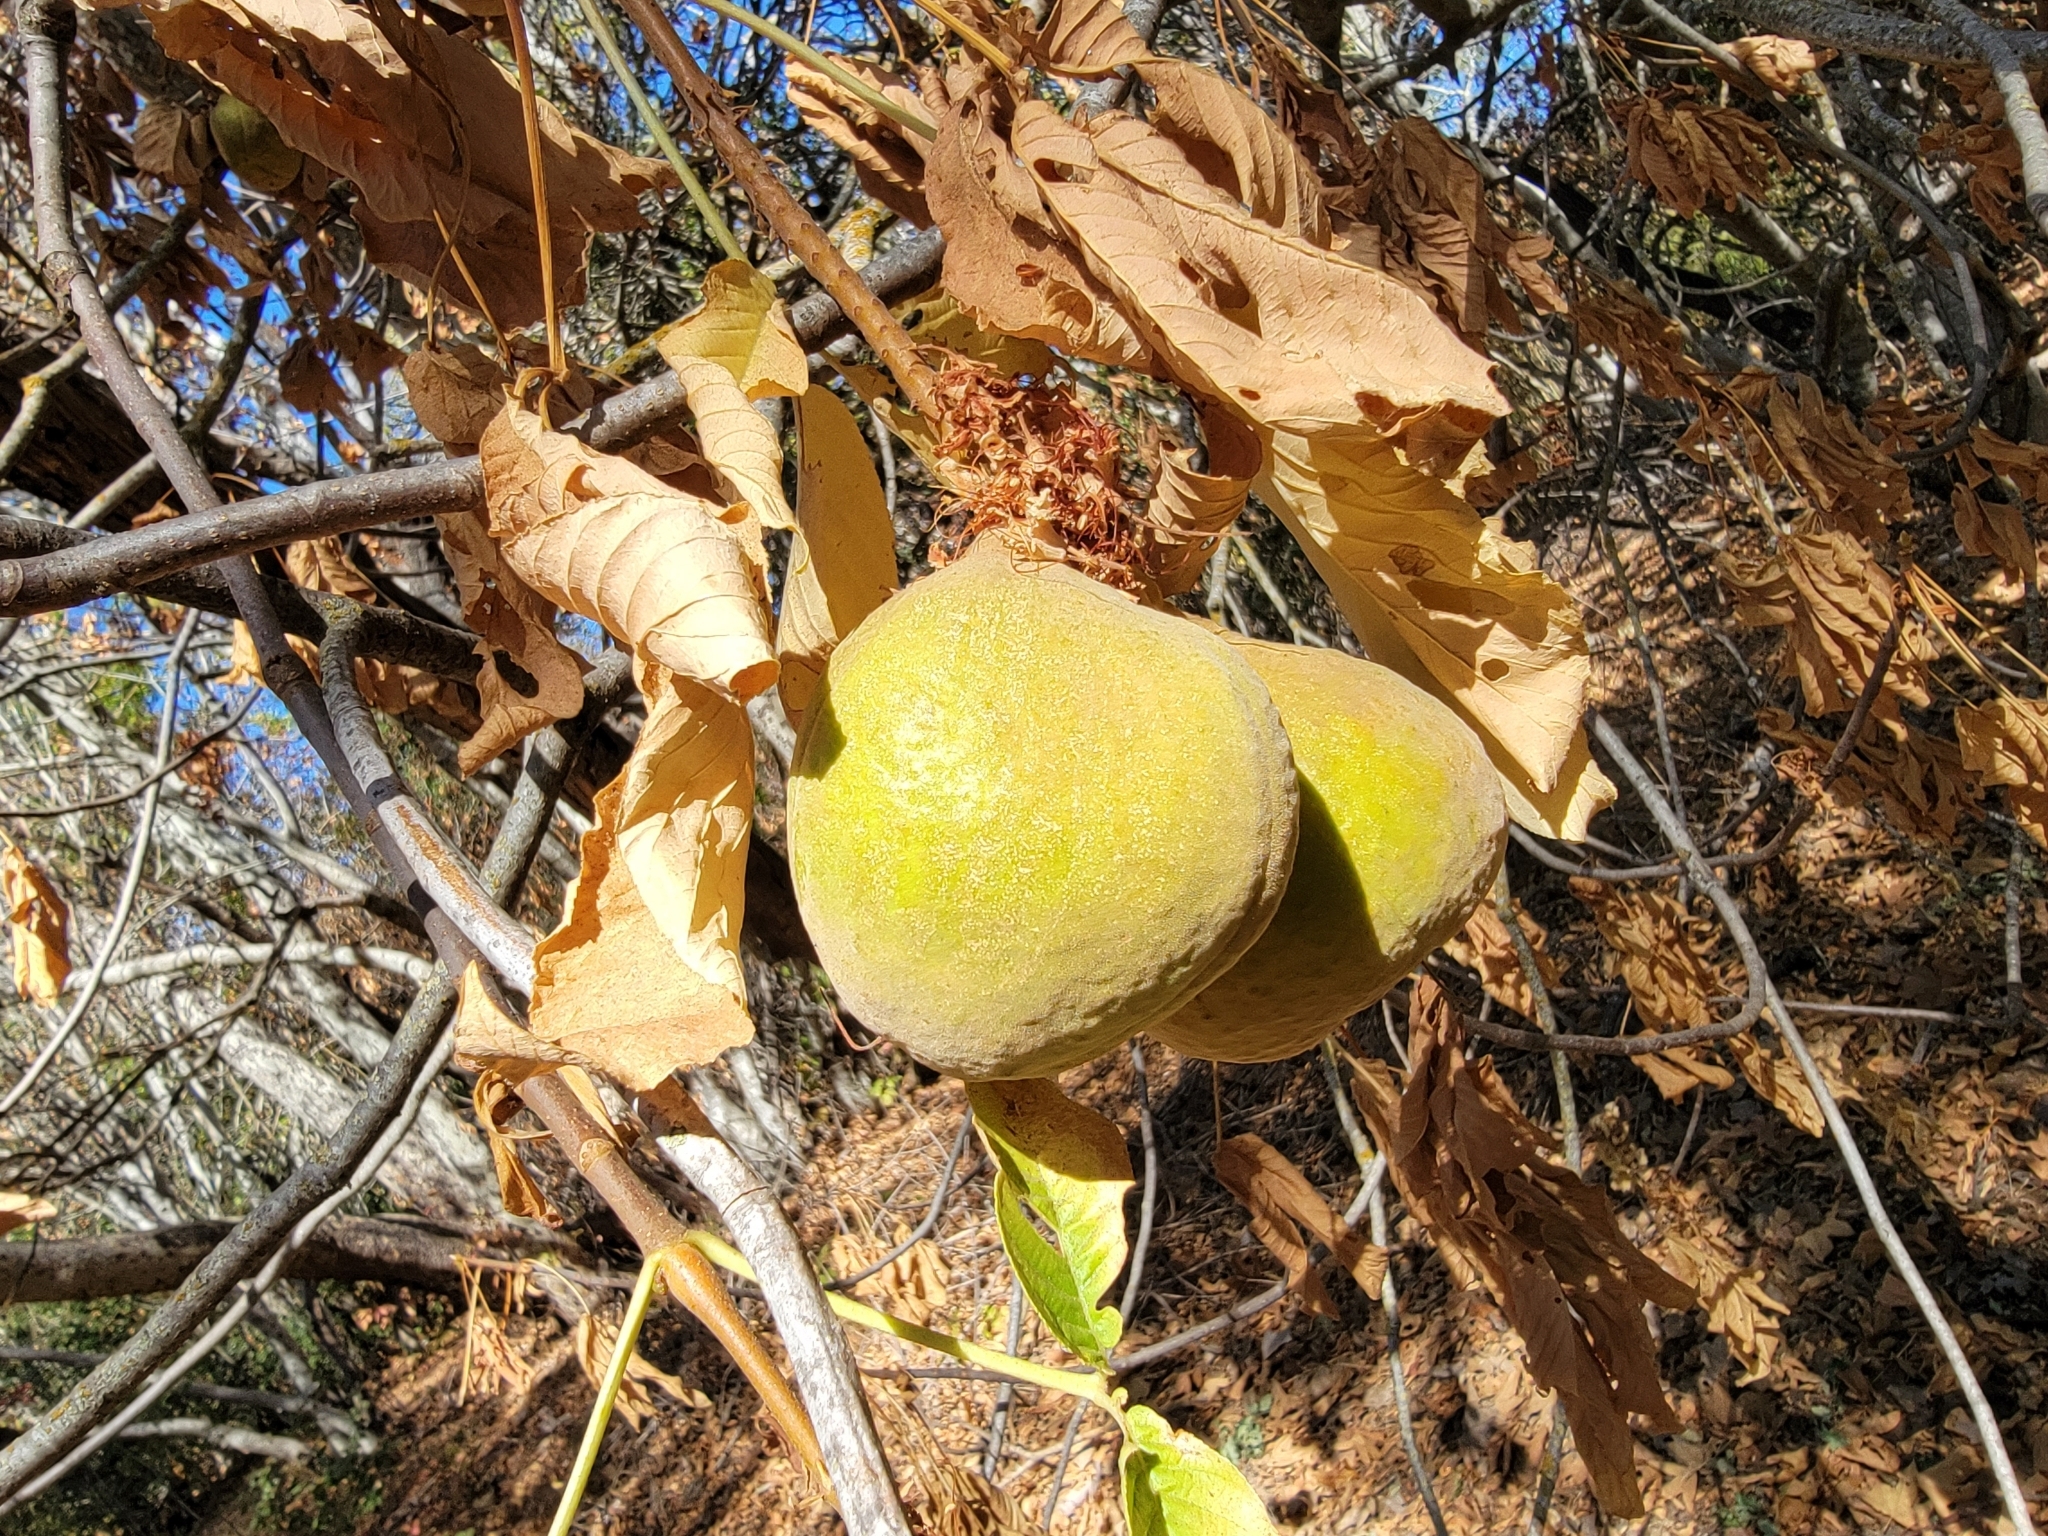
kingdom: Plantae
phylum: Tracheophyta
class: Magnoliopsida
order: Sapindales
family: Sapindaceae
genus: Aesculus
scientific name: Aesculus californica
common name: California buckeye
